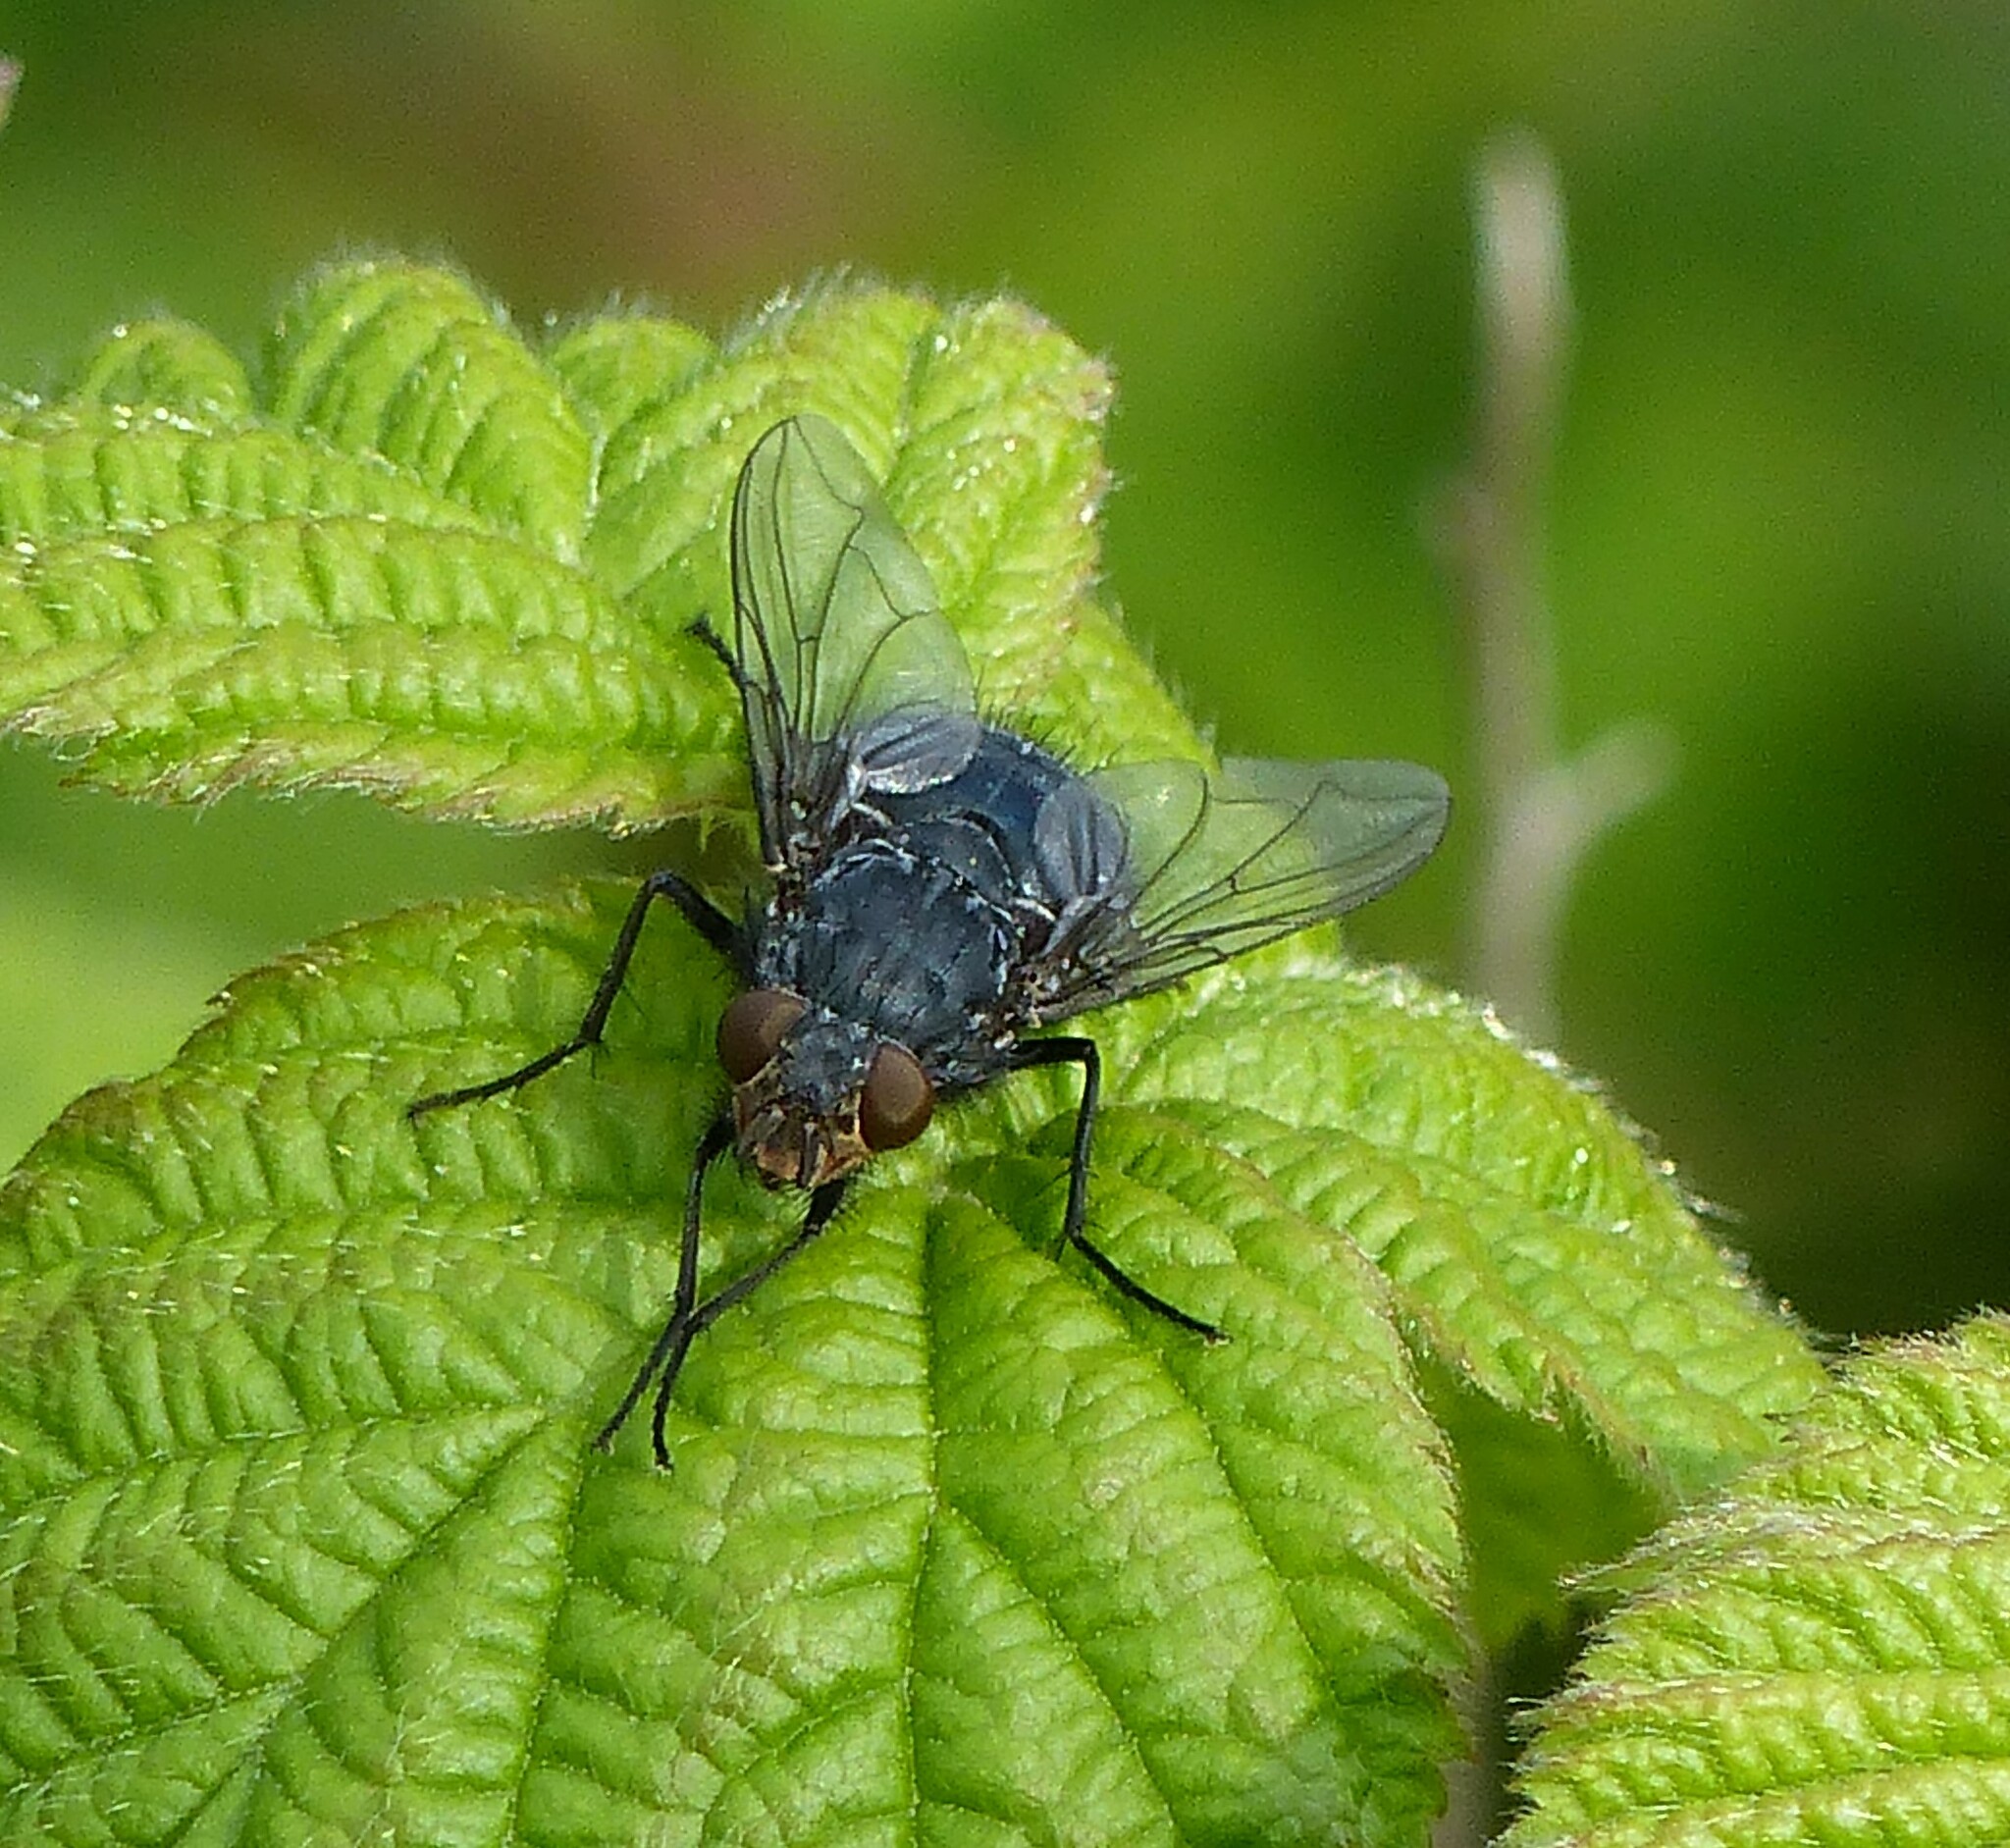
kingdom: Animalia
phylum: Arthropoda
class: Insecta
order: Diptera
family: Calliphoridae
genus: Calliphora
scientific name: Calliphora vicina
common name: Common blow flie
